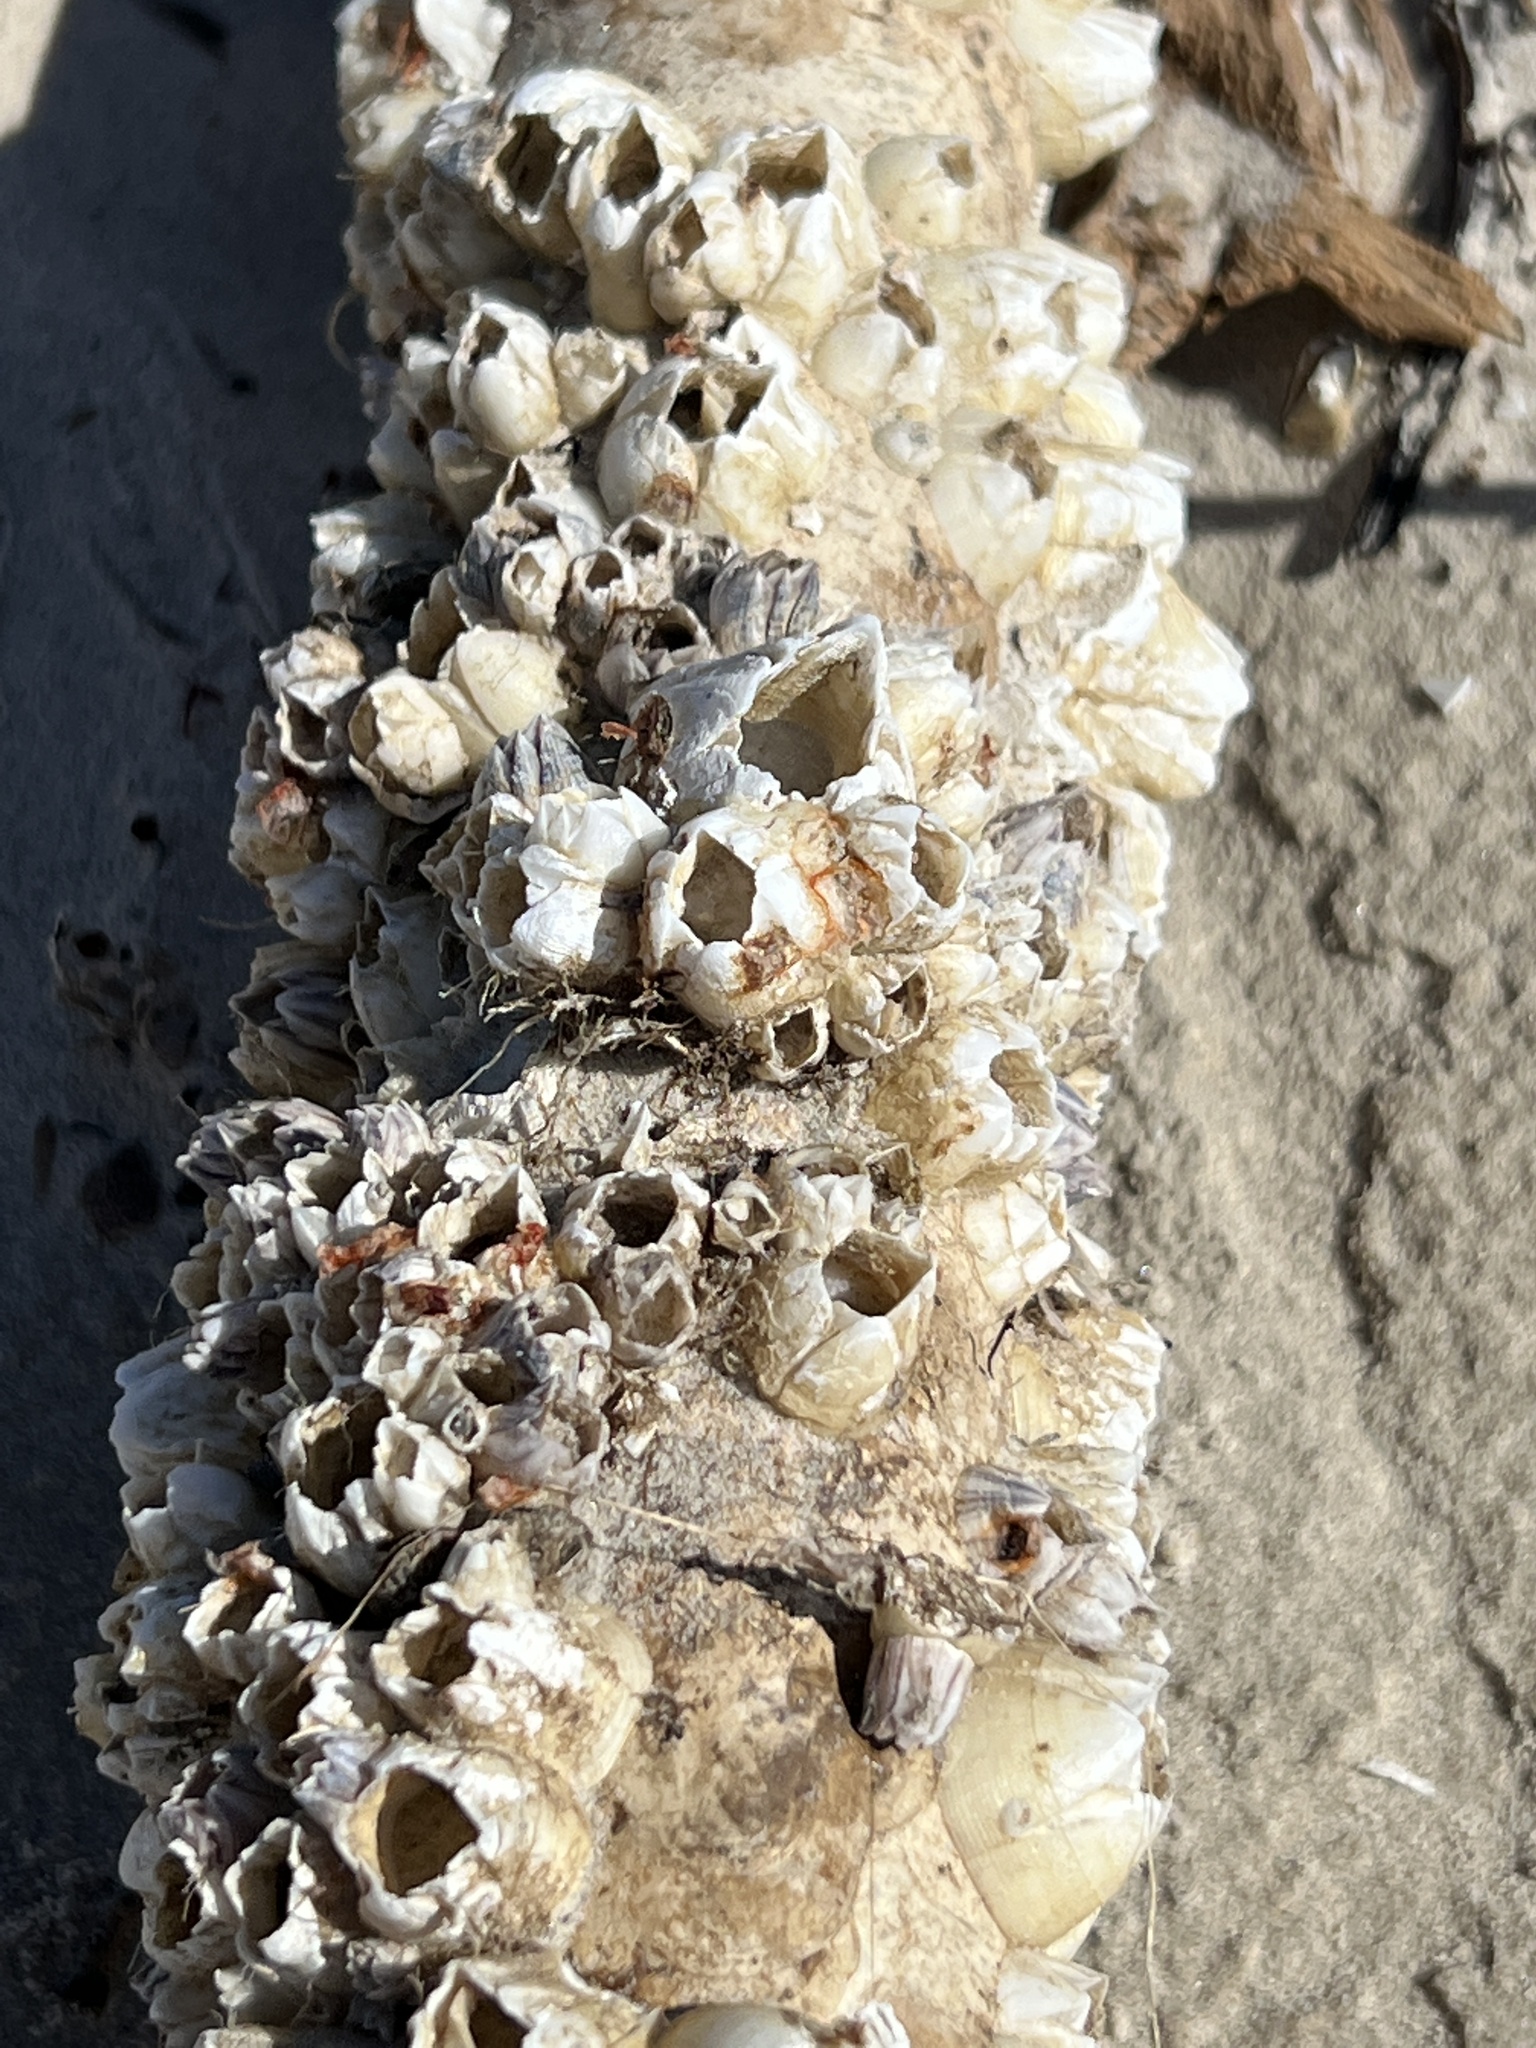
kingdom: Animalia
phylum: Arthropoda
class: Maxillopoda
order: Sessilia
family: Balanidae
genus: Amphibalanus
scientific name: Amphibalanus eburneus
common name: Ivory barnacle
